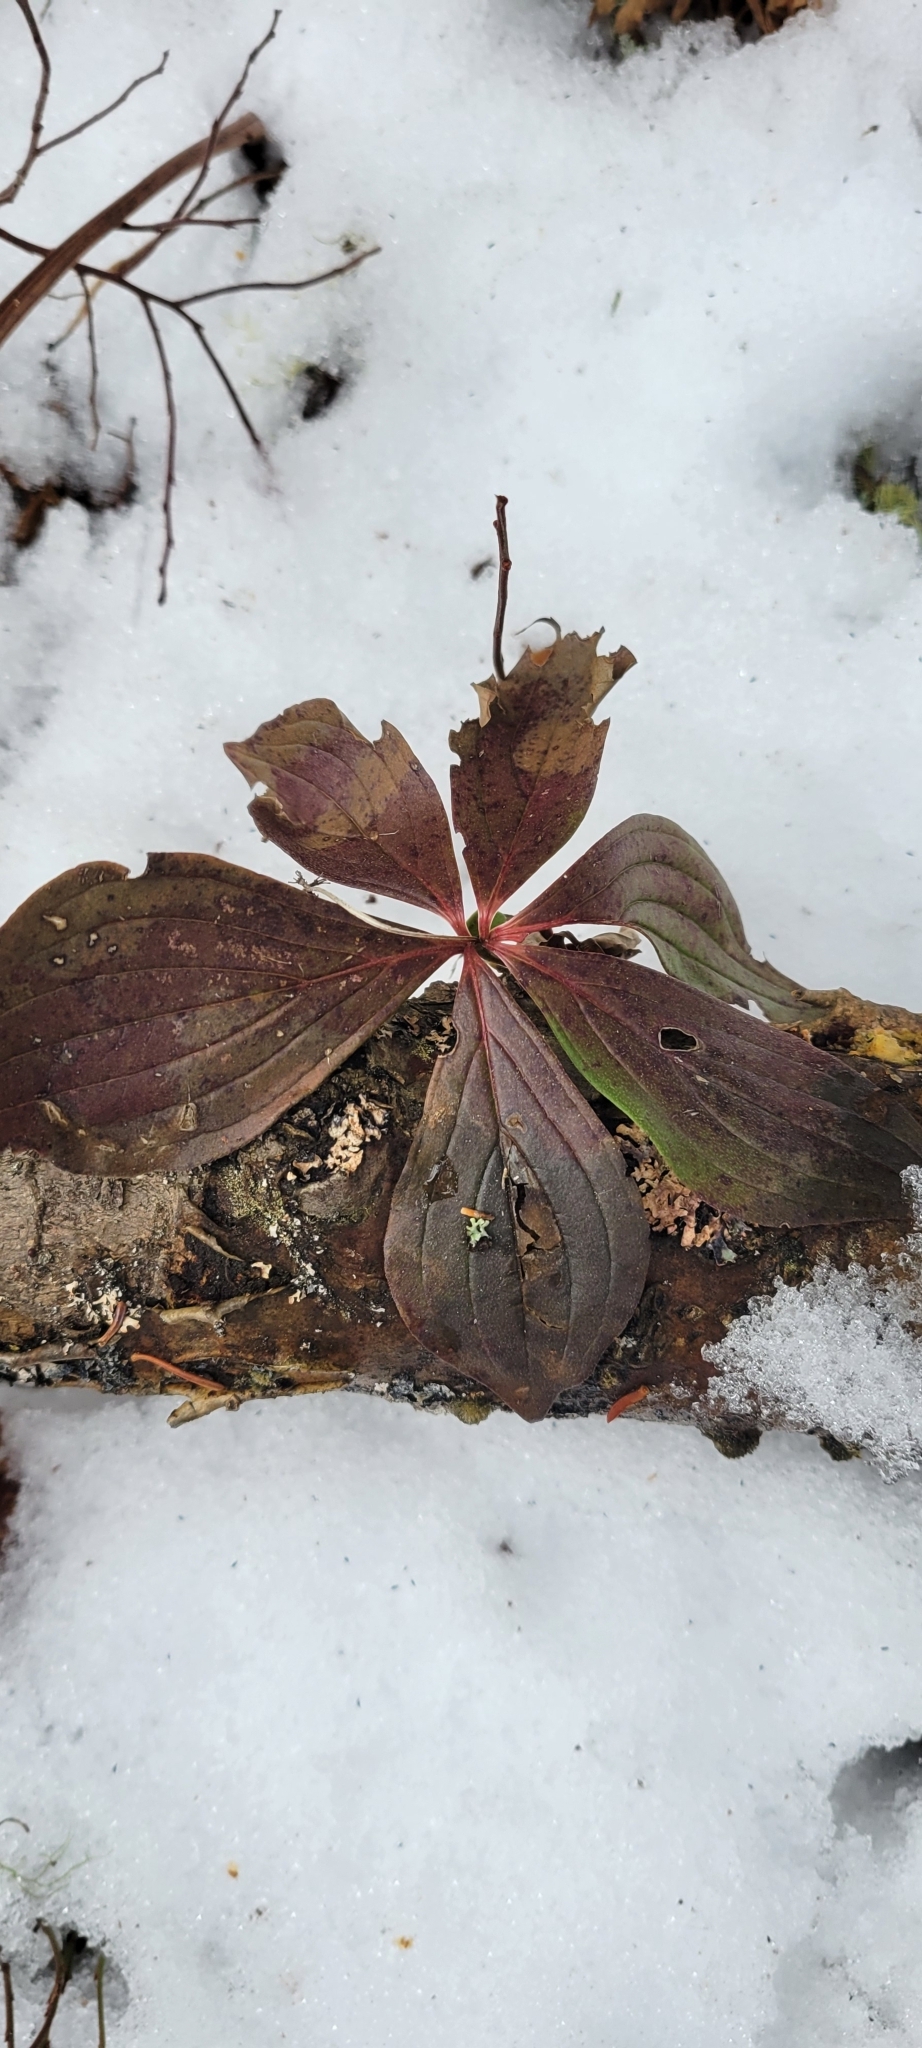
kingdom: Plantae
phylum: Tracheophyta
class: Magnoliopsida
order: Cornales
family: Cornaceae
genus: Cornus
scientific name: Cornus canadensis
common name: Creeping dogwood
